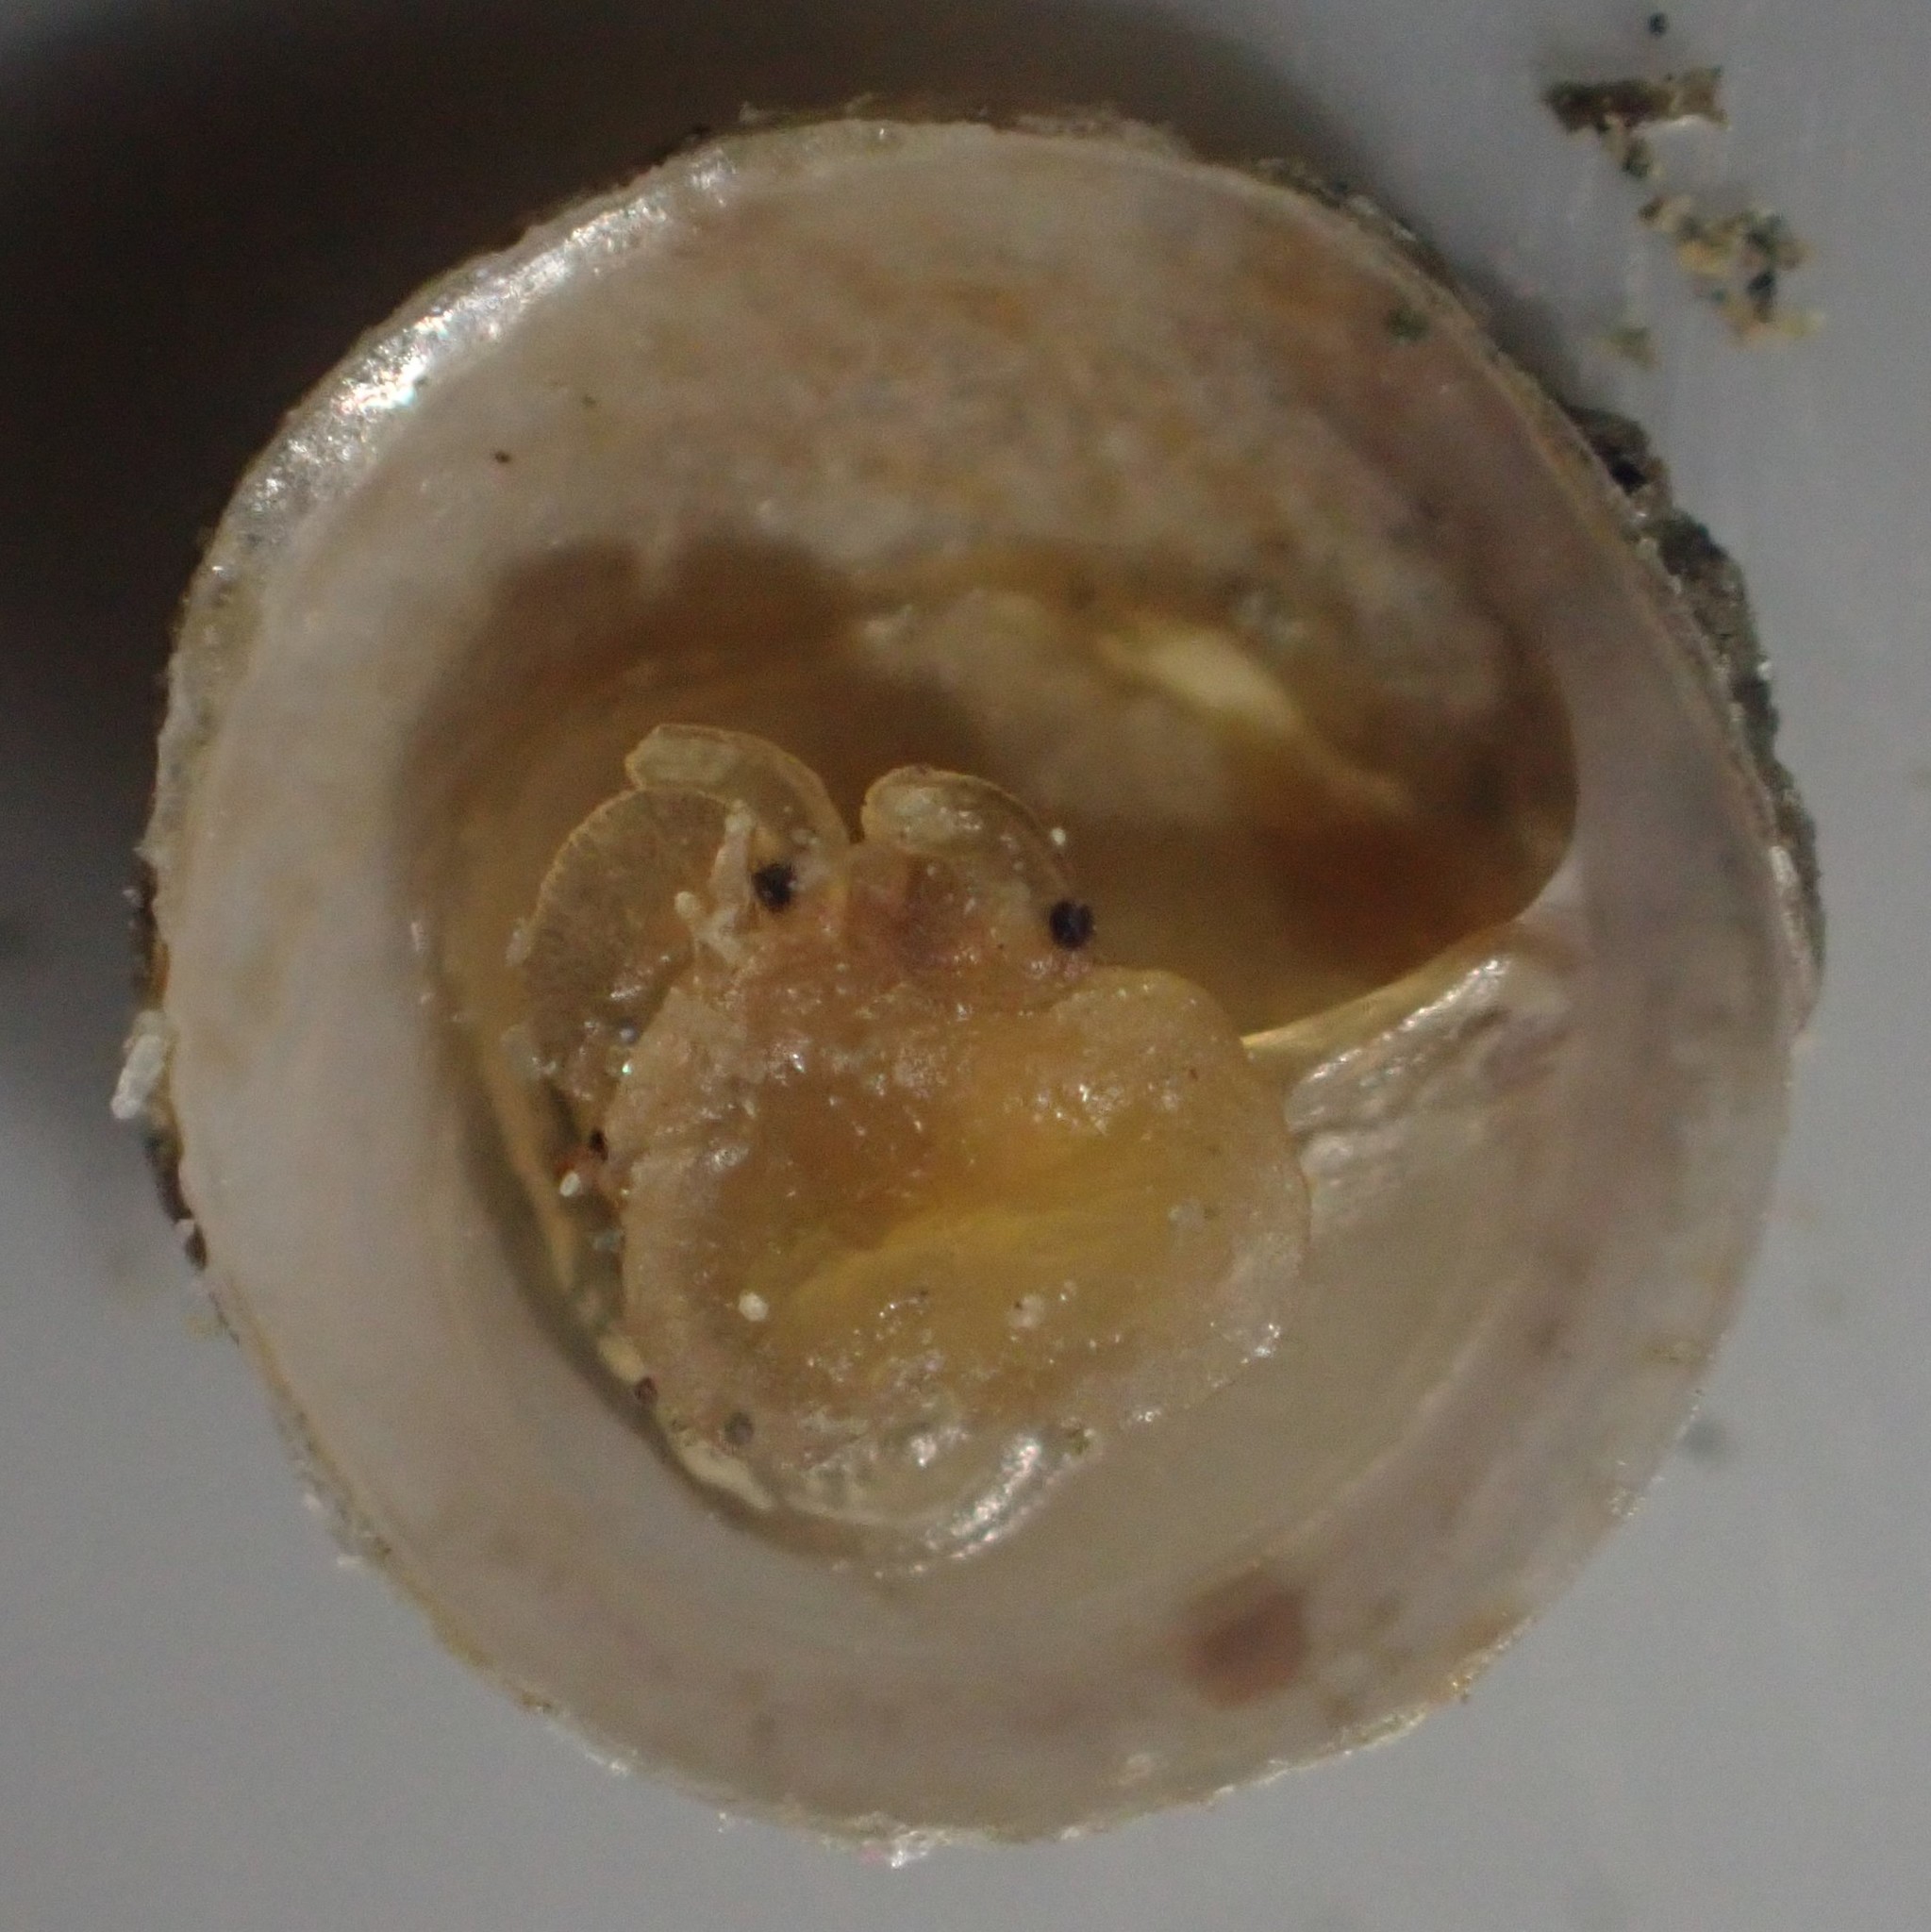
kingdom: Animalia
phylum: Mollusca
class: Gastropoda
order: Littorinimorpha
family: Calyptraeidae
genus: Sigapatella
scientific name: Sigapatella tenuis
